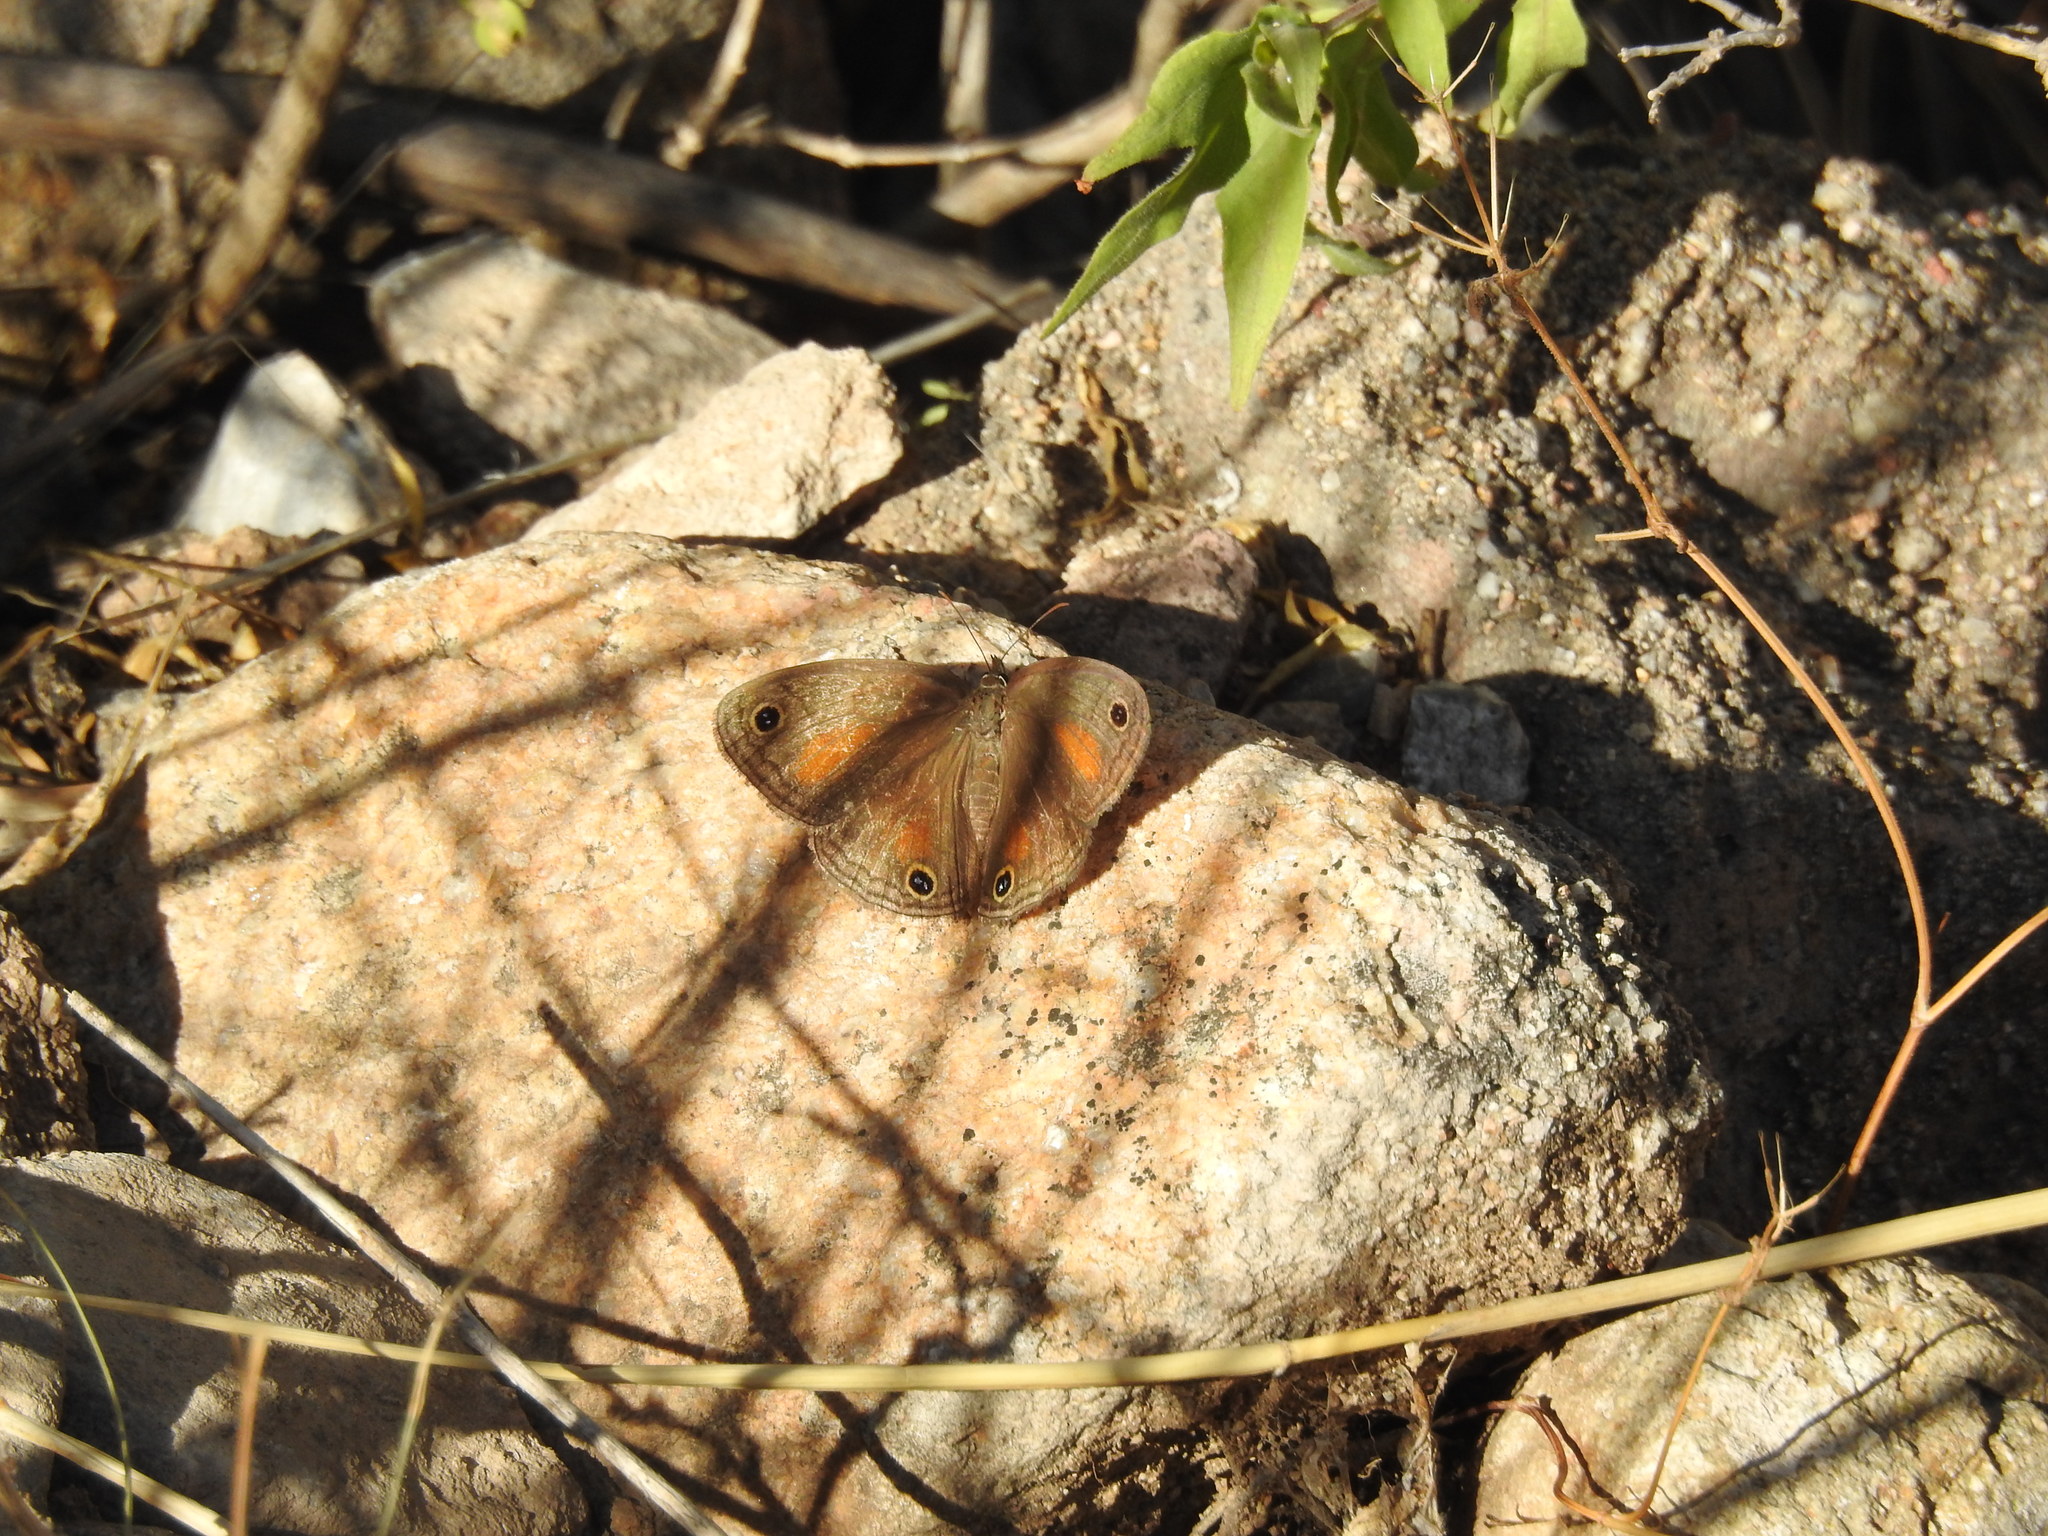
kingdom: Animalia
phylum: Arthropoda
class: Insecta
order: Lepidoptera
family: Nymphalidae
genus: Euptychia
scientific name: Euptychia
